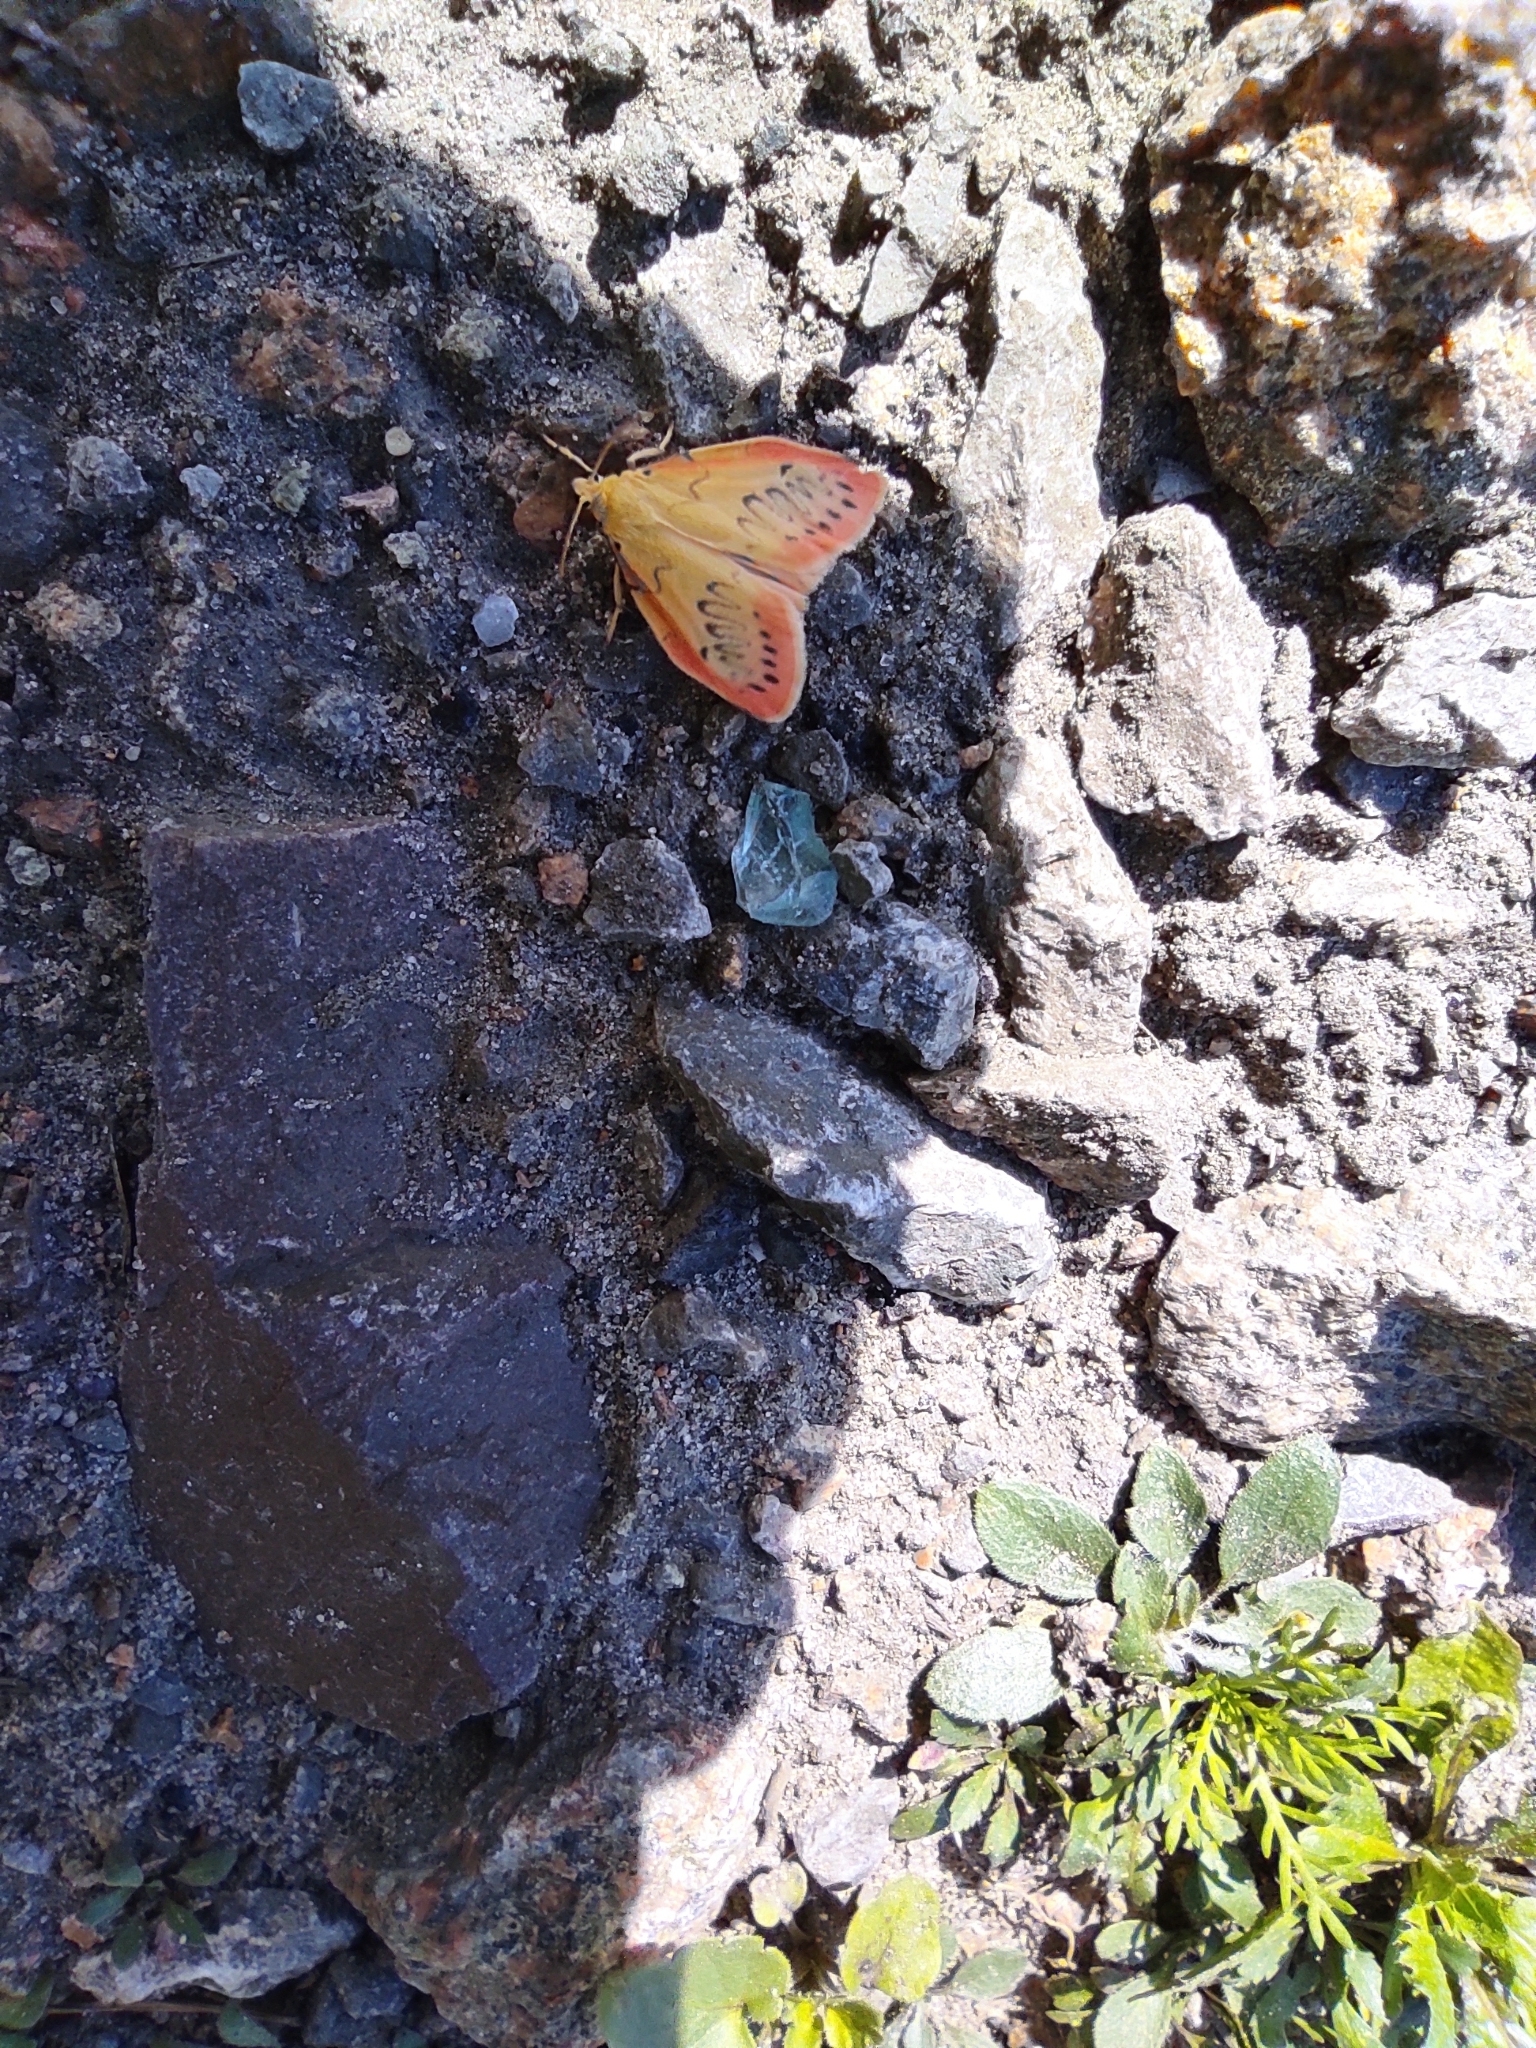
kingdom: Animalia
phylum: Arthropoda
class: Insecta
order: Lepidoptera
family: Erebidae
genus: Miltochrista
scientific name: Miltochrista miniata
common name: Rosy footman
